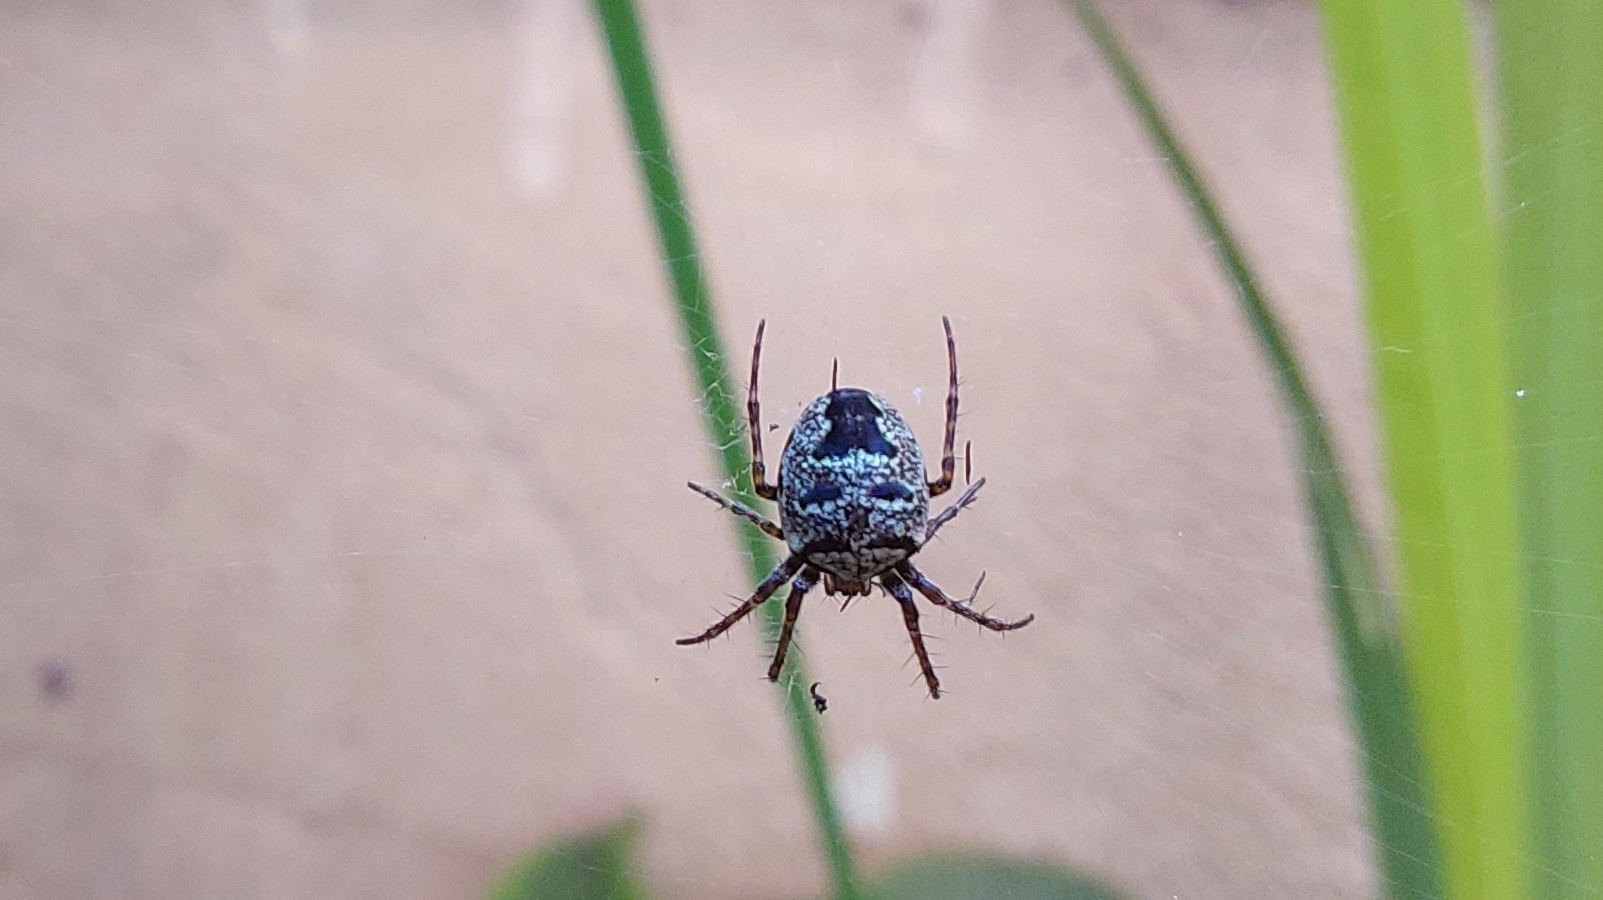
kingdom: Animalia
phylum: Arthropoda
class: Arachnida
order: Araneae
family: Araneidae
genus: Zilla
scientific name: Zilla diodia
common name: Zilla diodia
